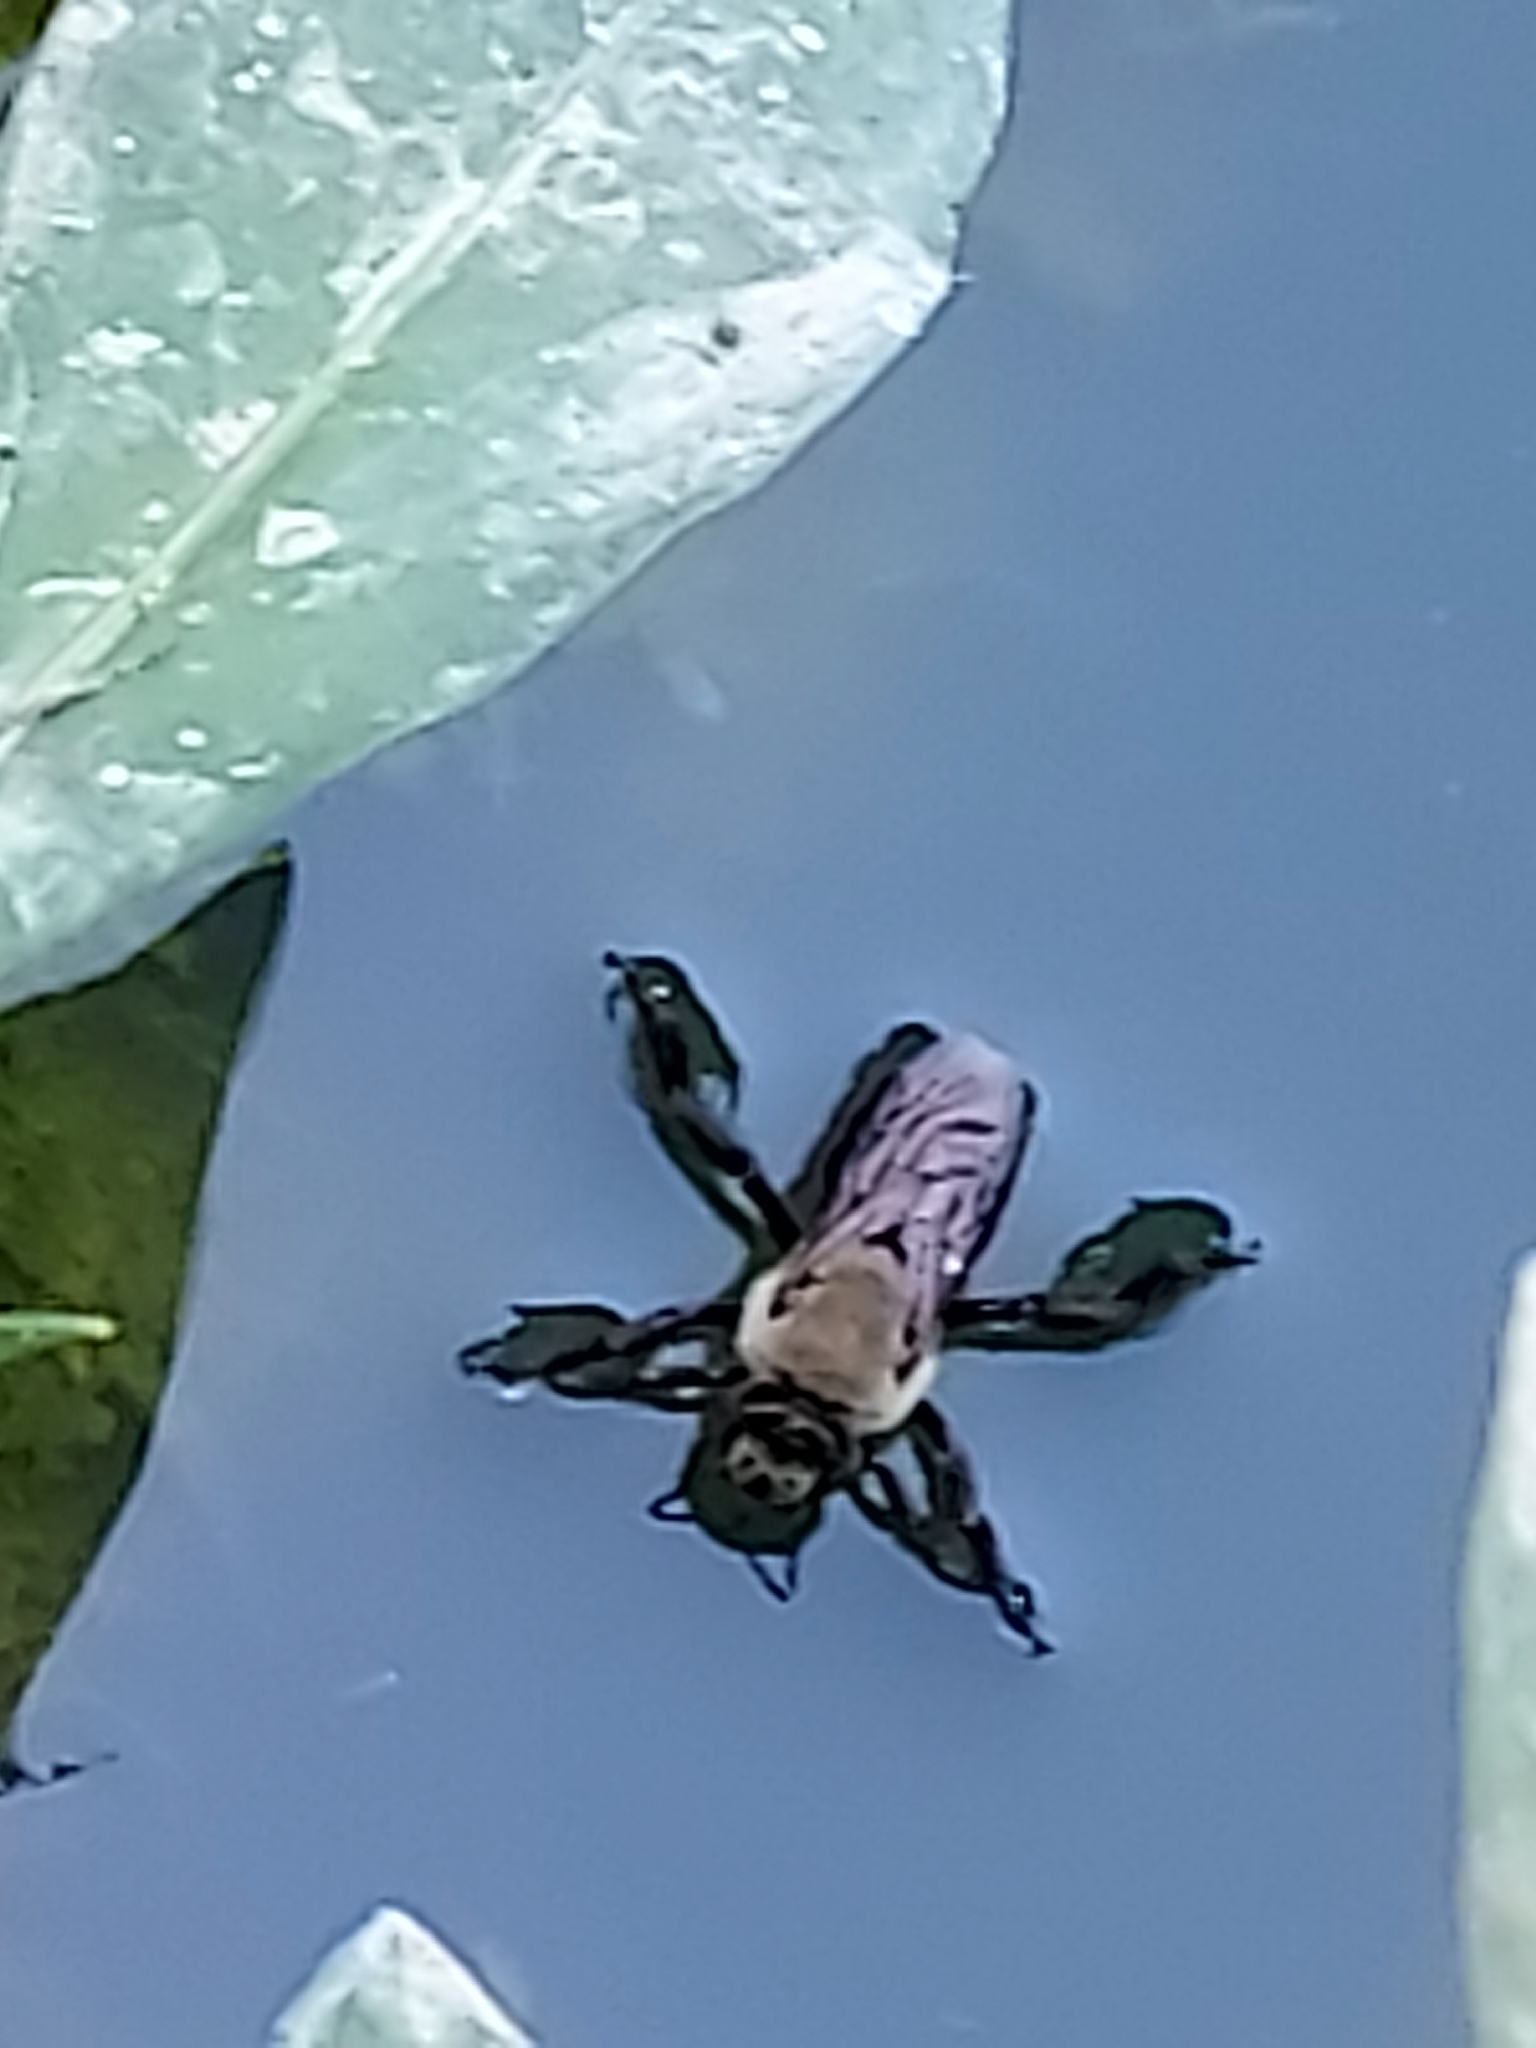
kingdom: Animalia
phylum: Arthropoda
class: Insecta
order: Hymenoptera
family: Apidae
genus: Ptilothrix
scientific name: Ptilothrix bombiformis
